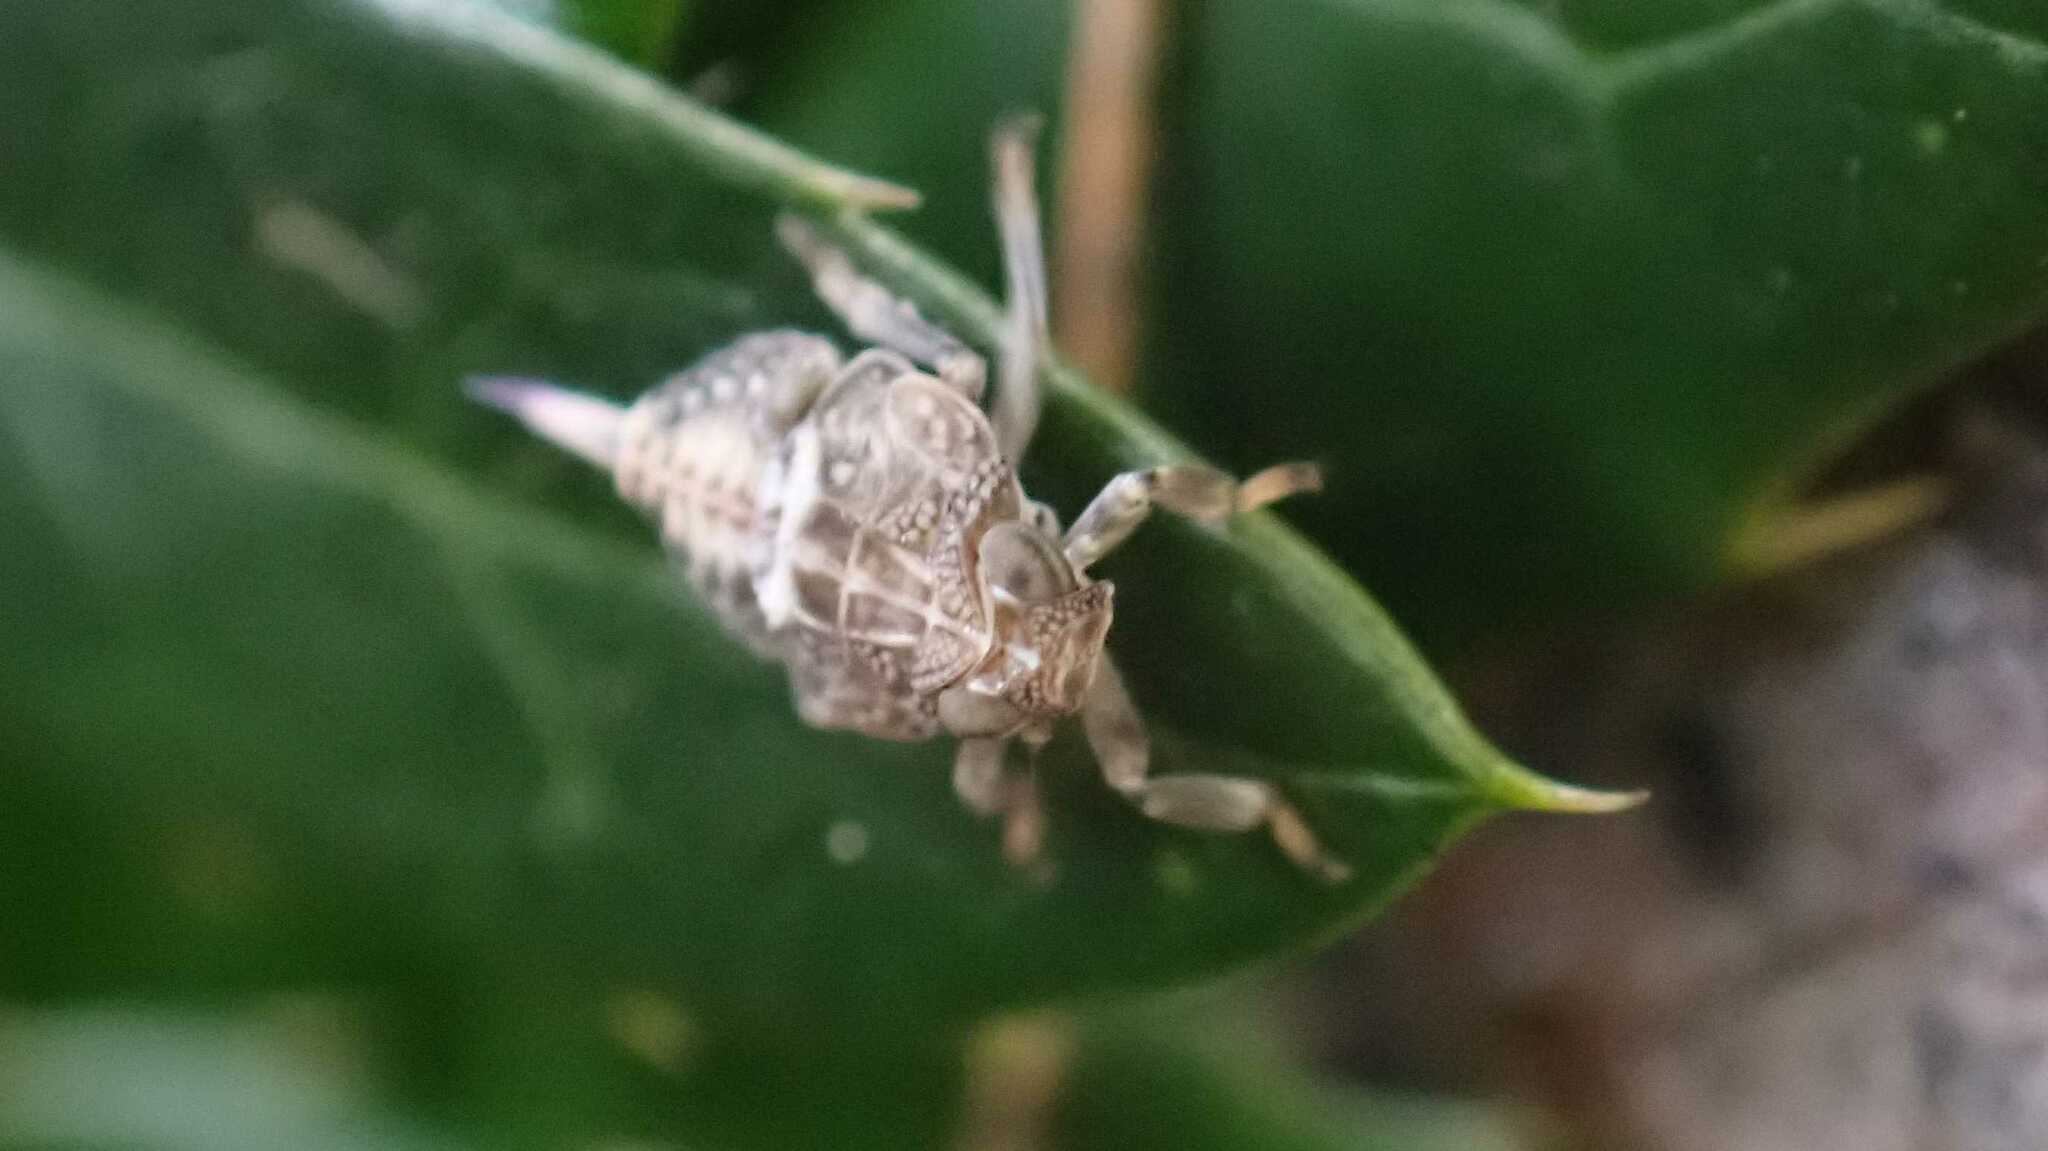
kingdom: Animalia
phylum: Arthropoda
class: Insecta
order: Hemiptera
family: Issidae
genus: Issus
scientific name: Issus coleoptratus
